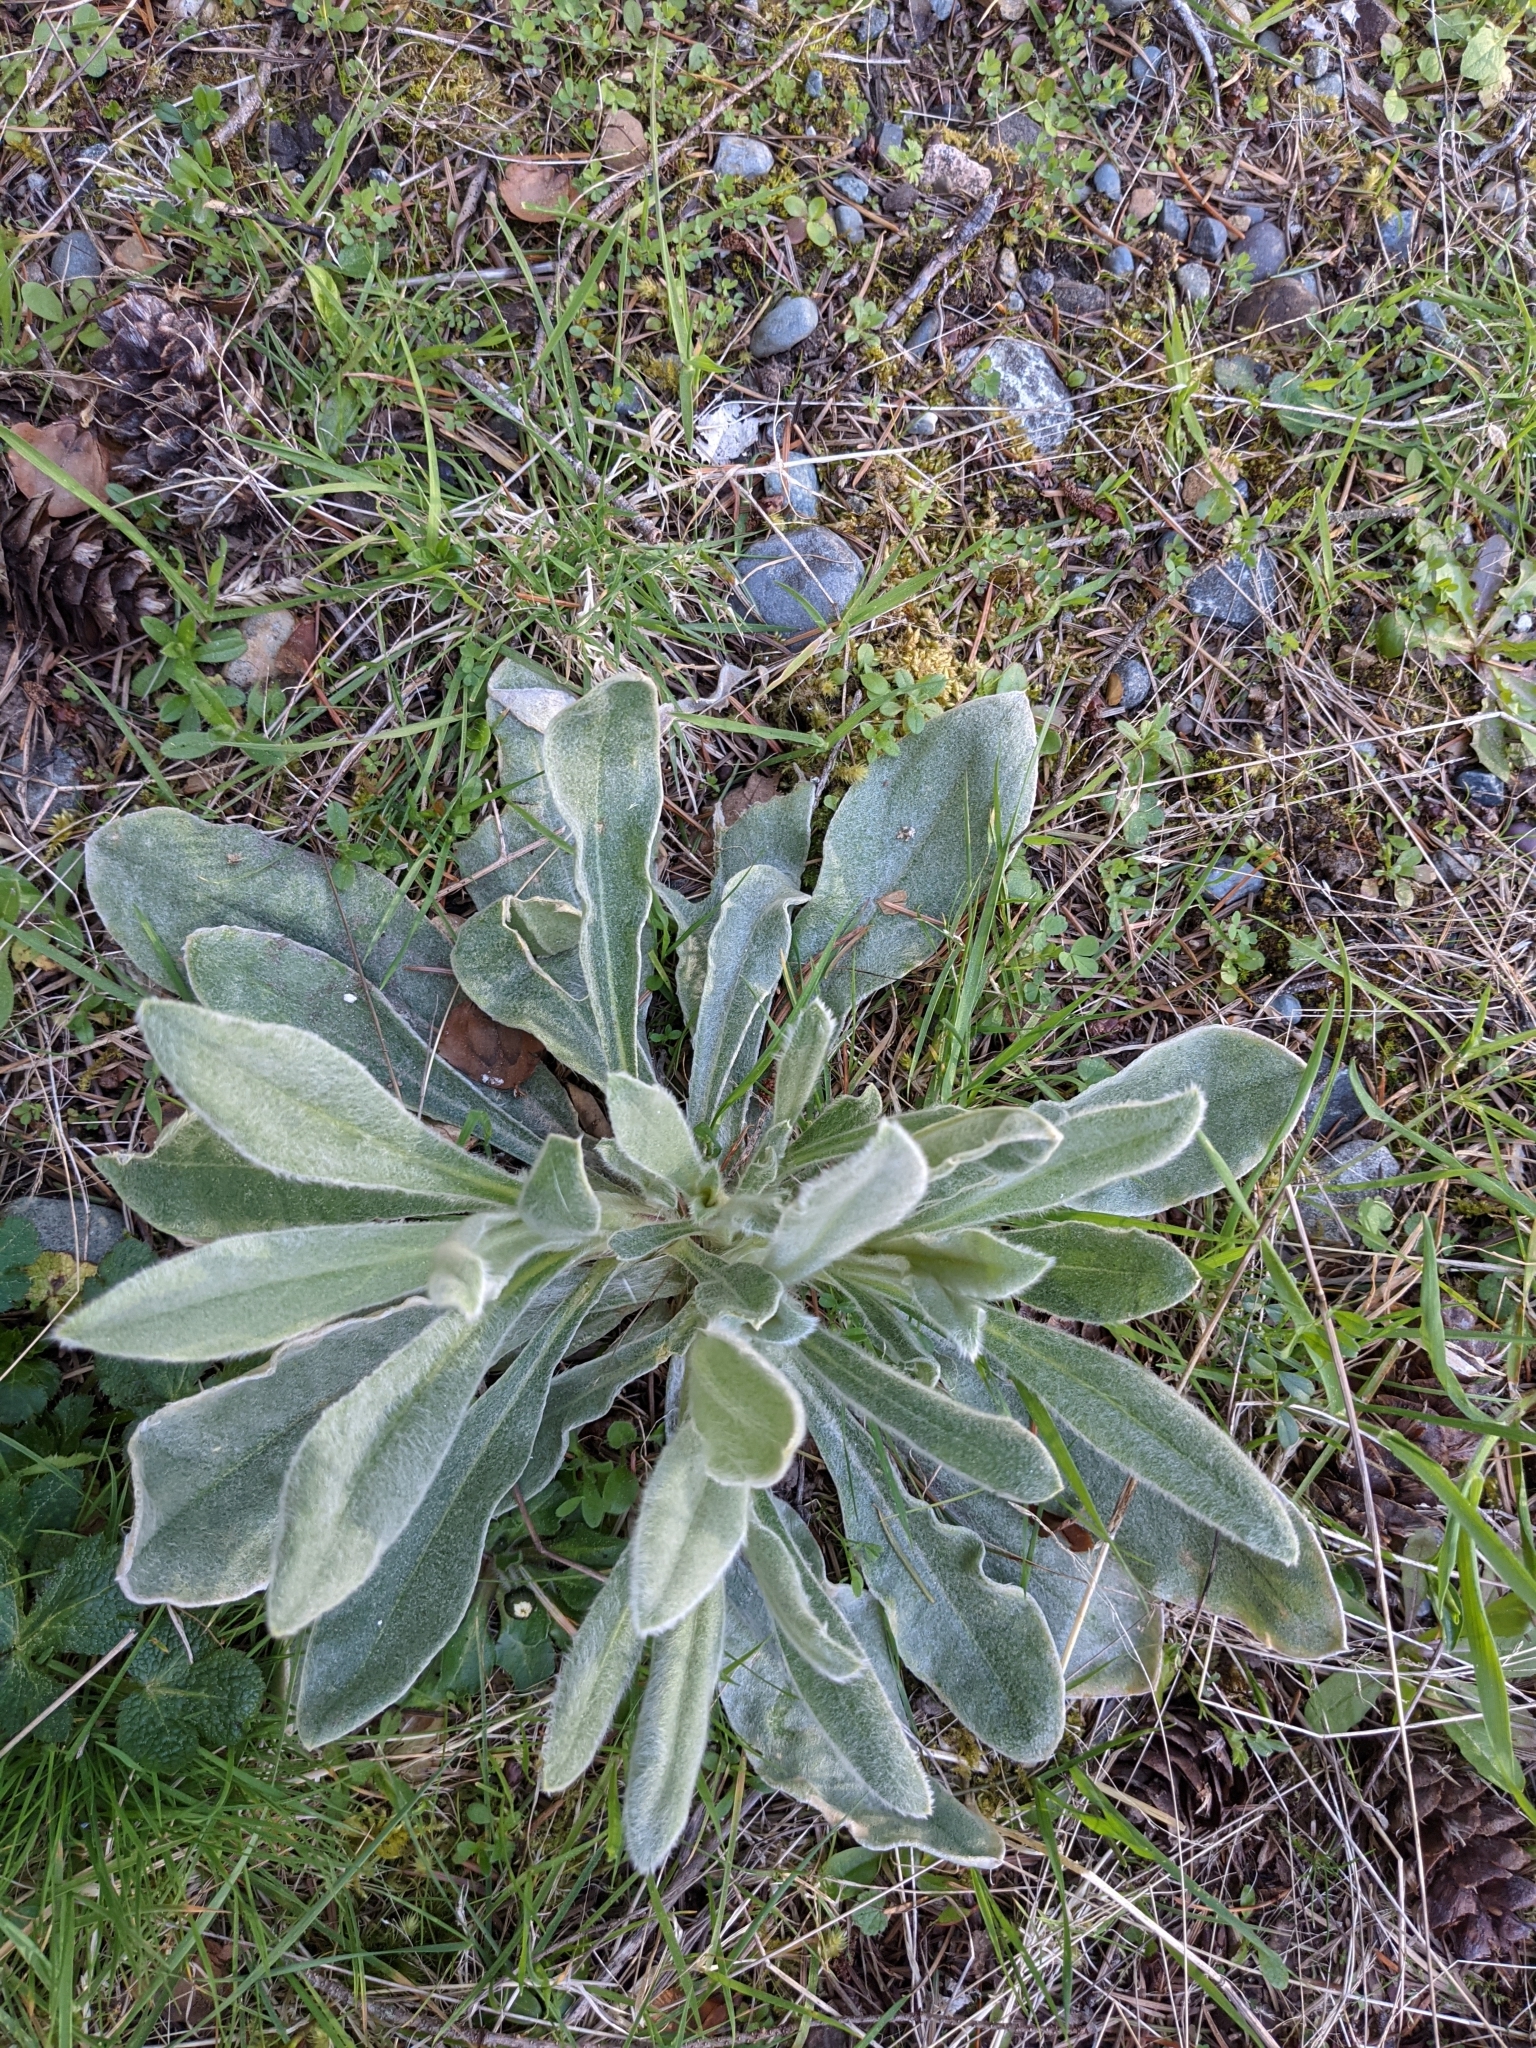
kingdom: Plantae
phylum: Tracheophyta
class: Magnoliopsida
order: Caryophyllales
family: Caryophyllaceae
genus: Silene
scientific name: Silene coronaria
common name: Rose campion
